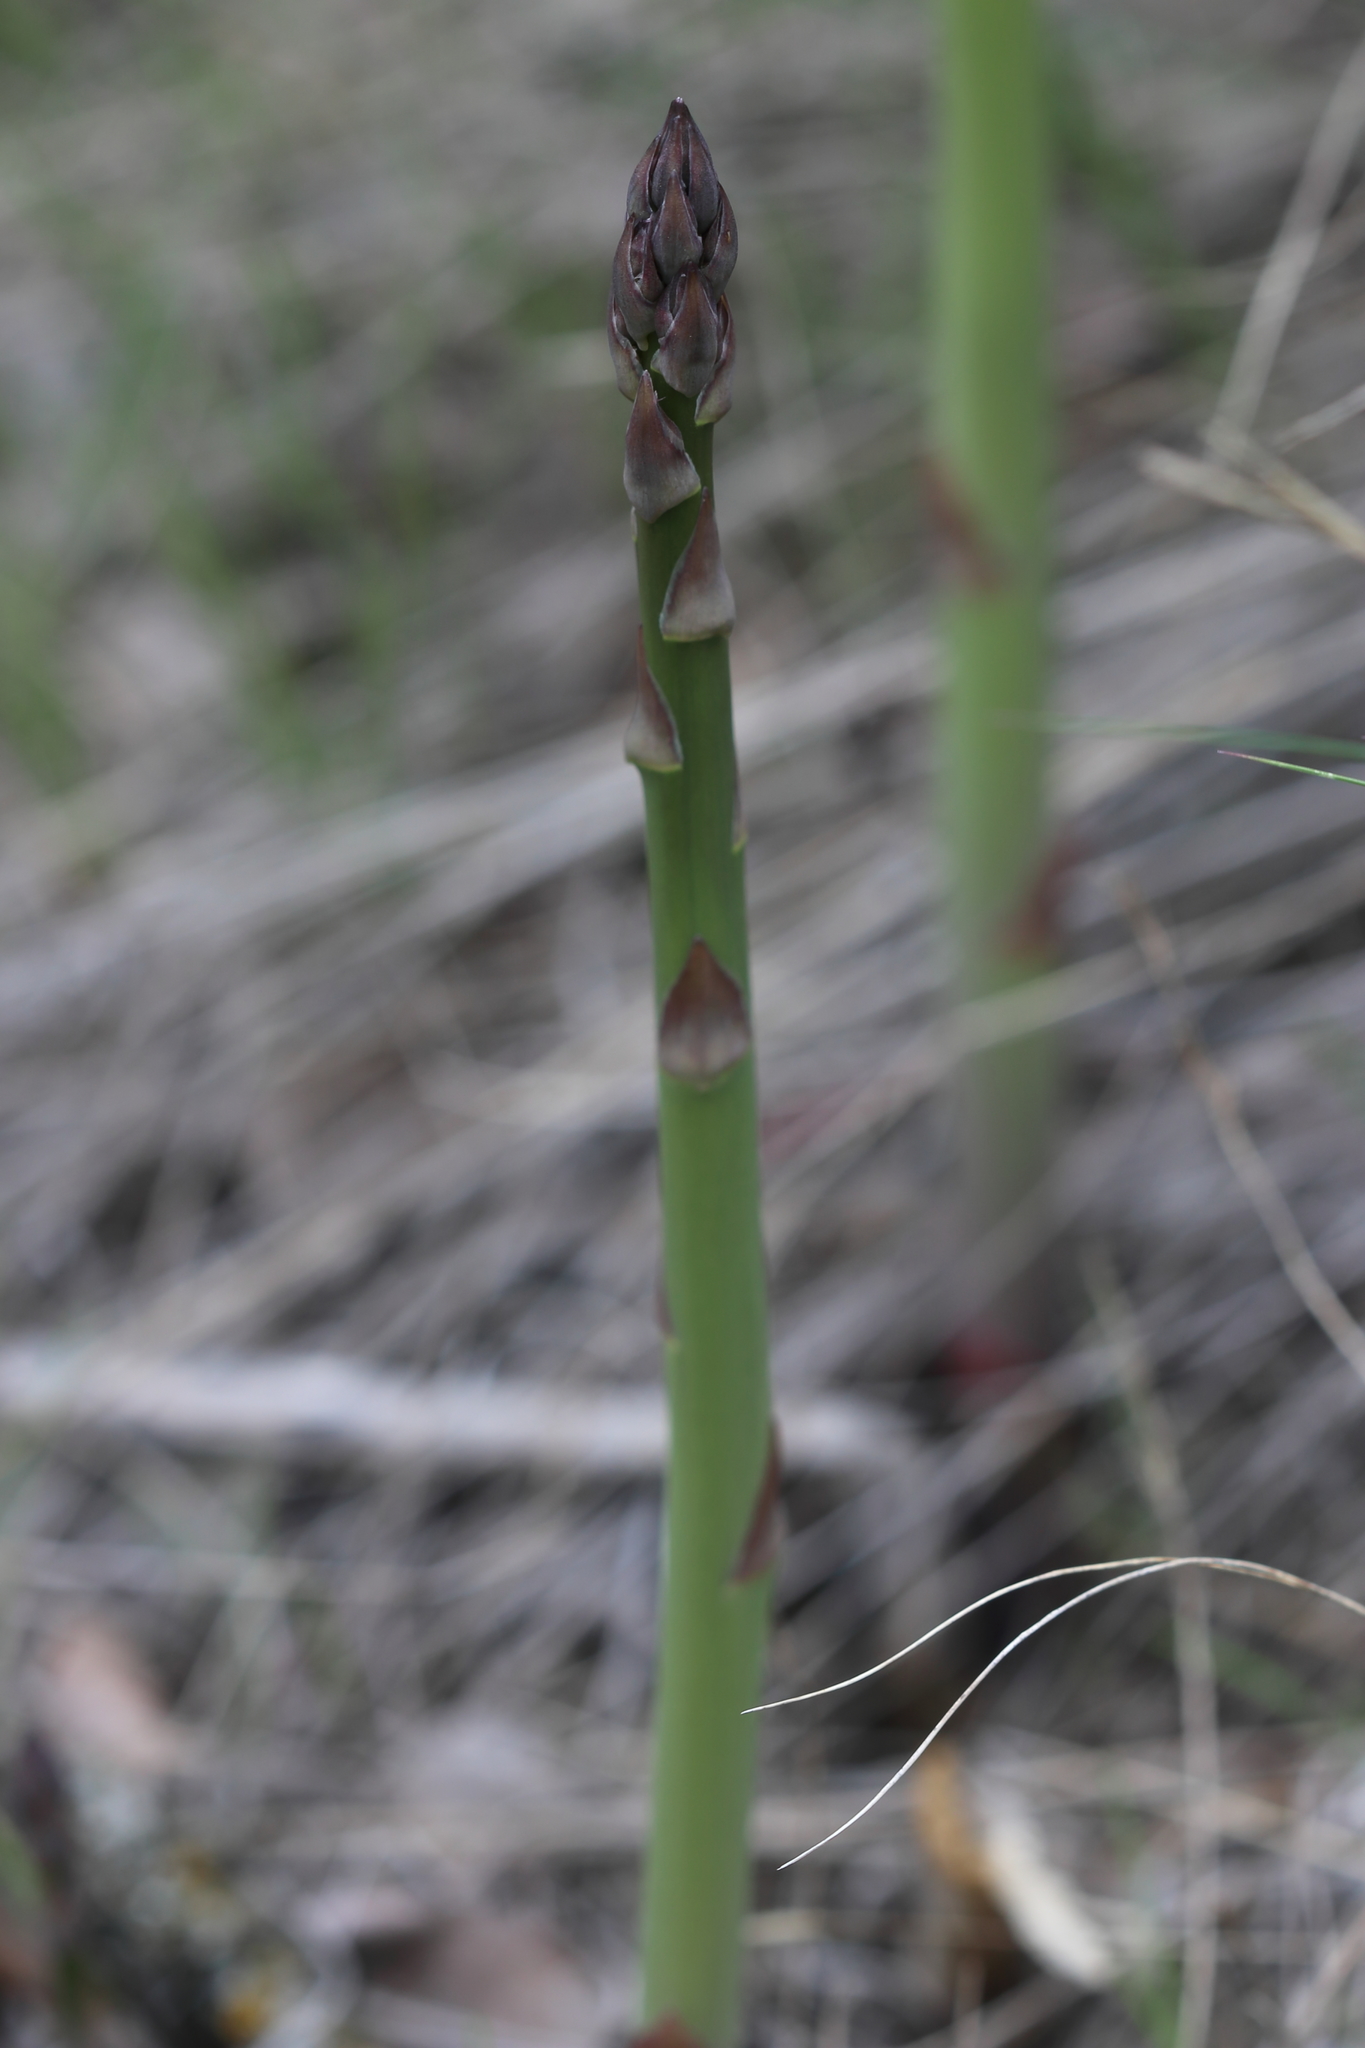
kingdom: Plantae
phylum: Tracheophyta
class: Liliopsida
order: Asparagales
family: Asparagaceae
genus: Asparagus
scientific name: Asparagus officinalis
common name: Garden asparagus
